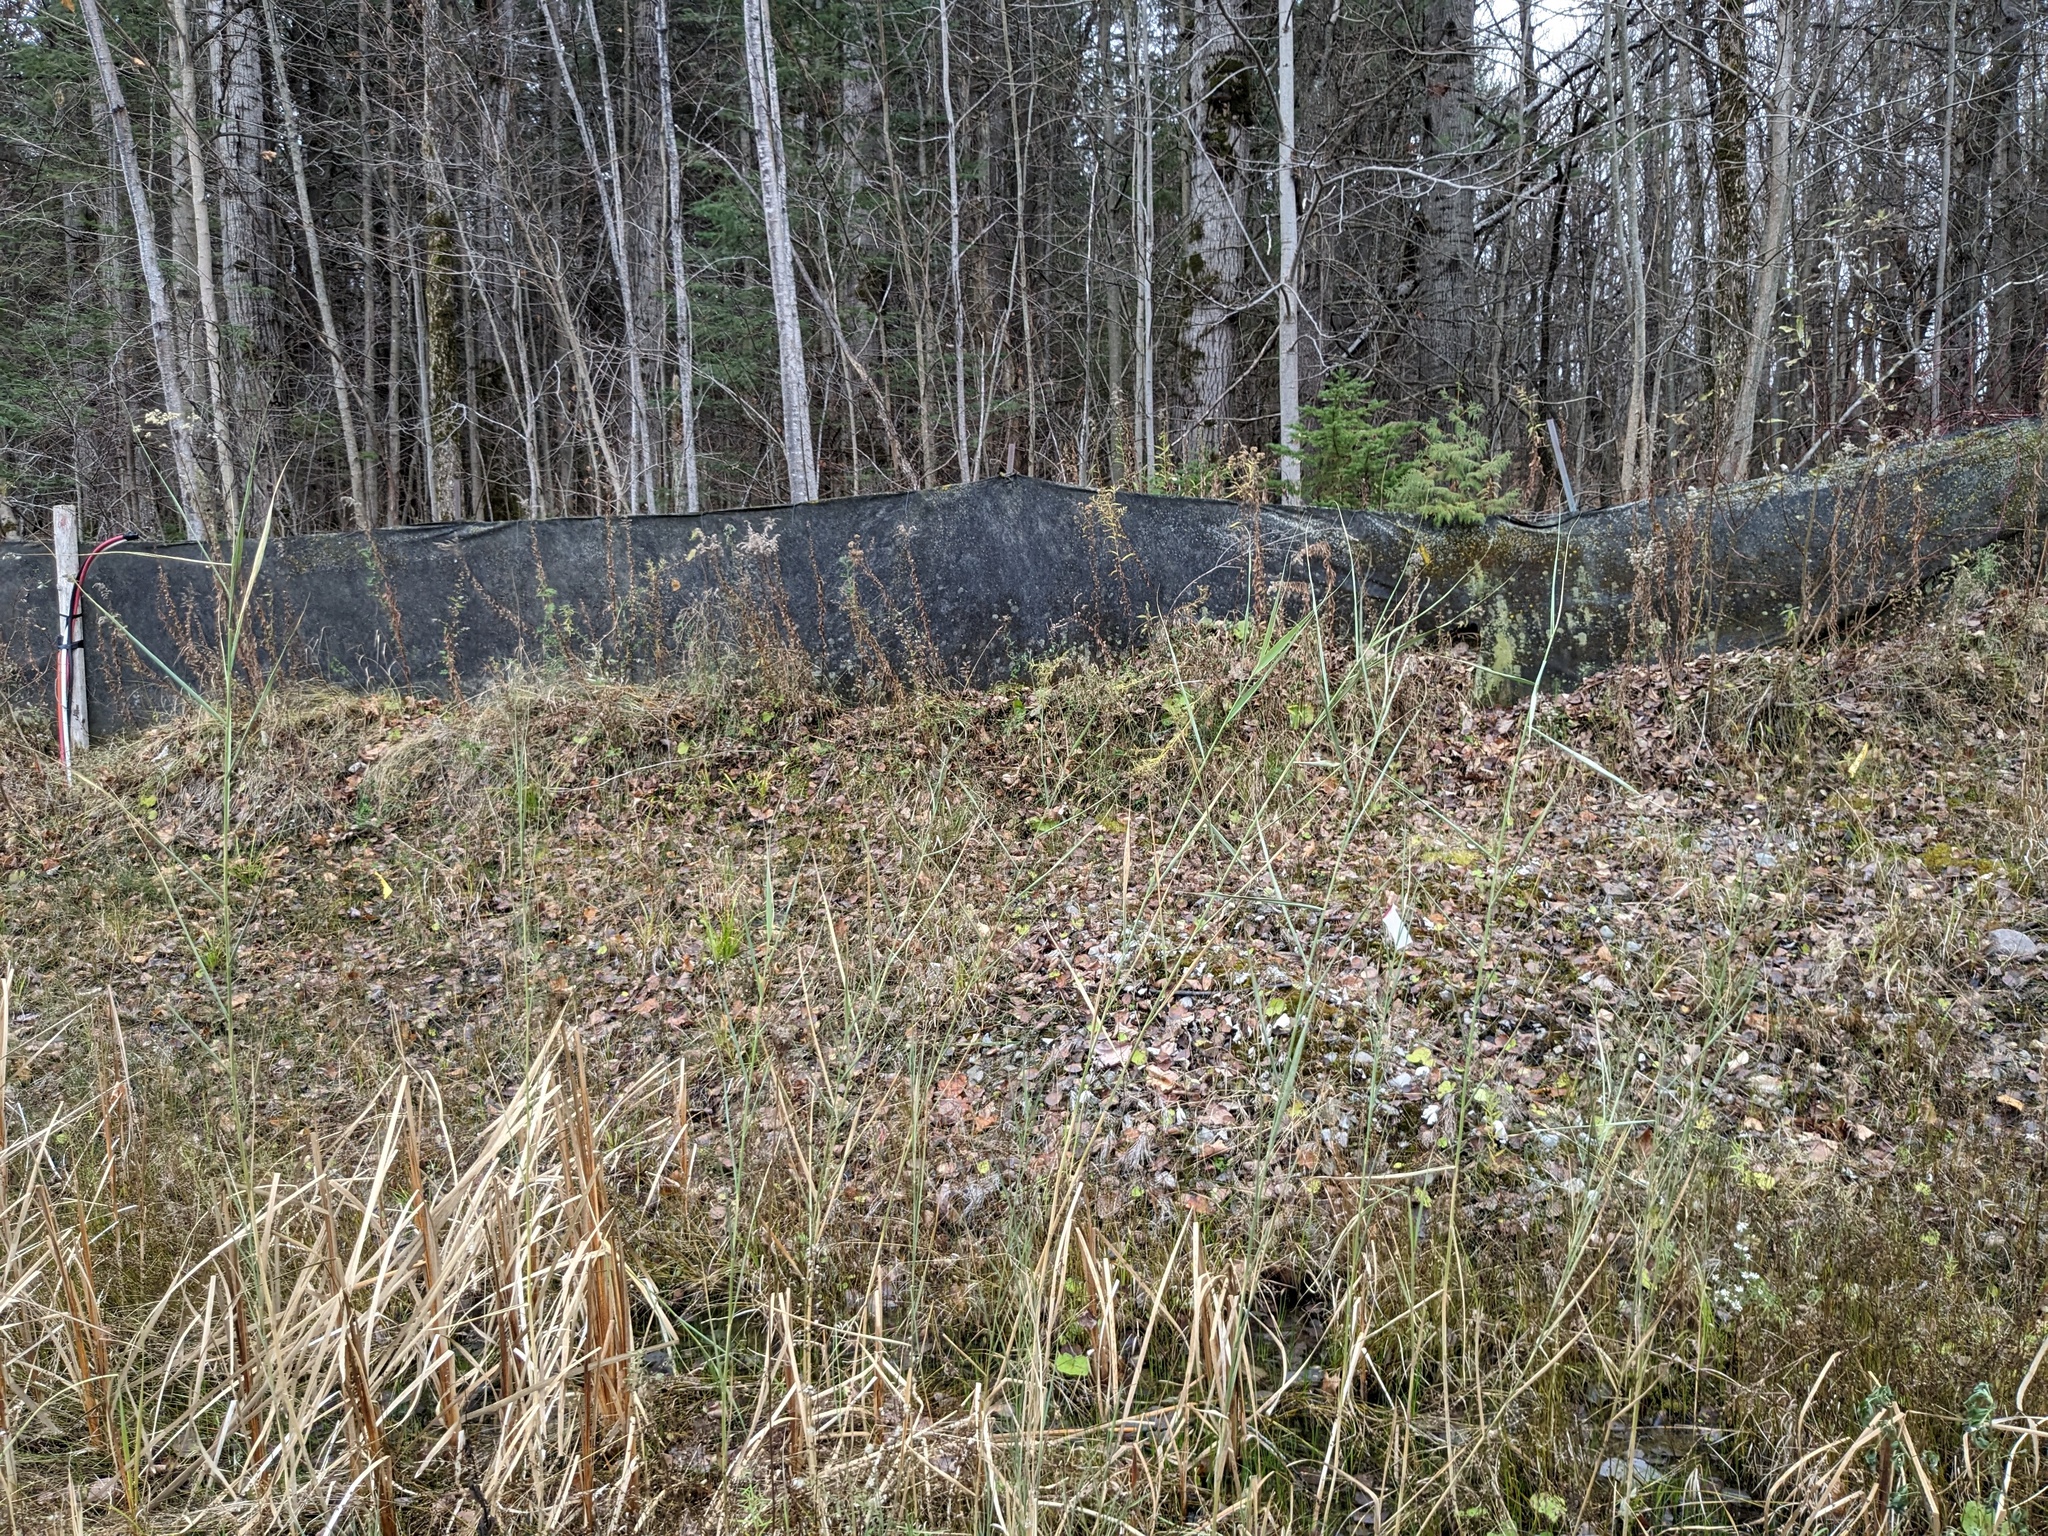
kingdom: Plantae
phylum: Tracheophyta
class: Liliopsida
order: Poales
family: Poaceae
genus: Phragmites
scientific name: Phragmites australis
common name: Common reed
